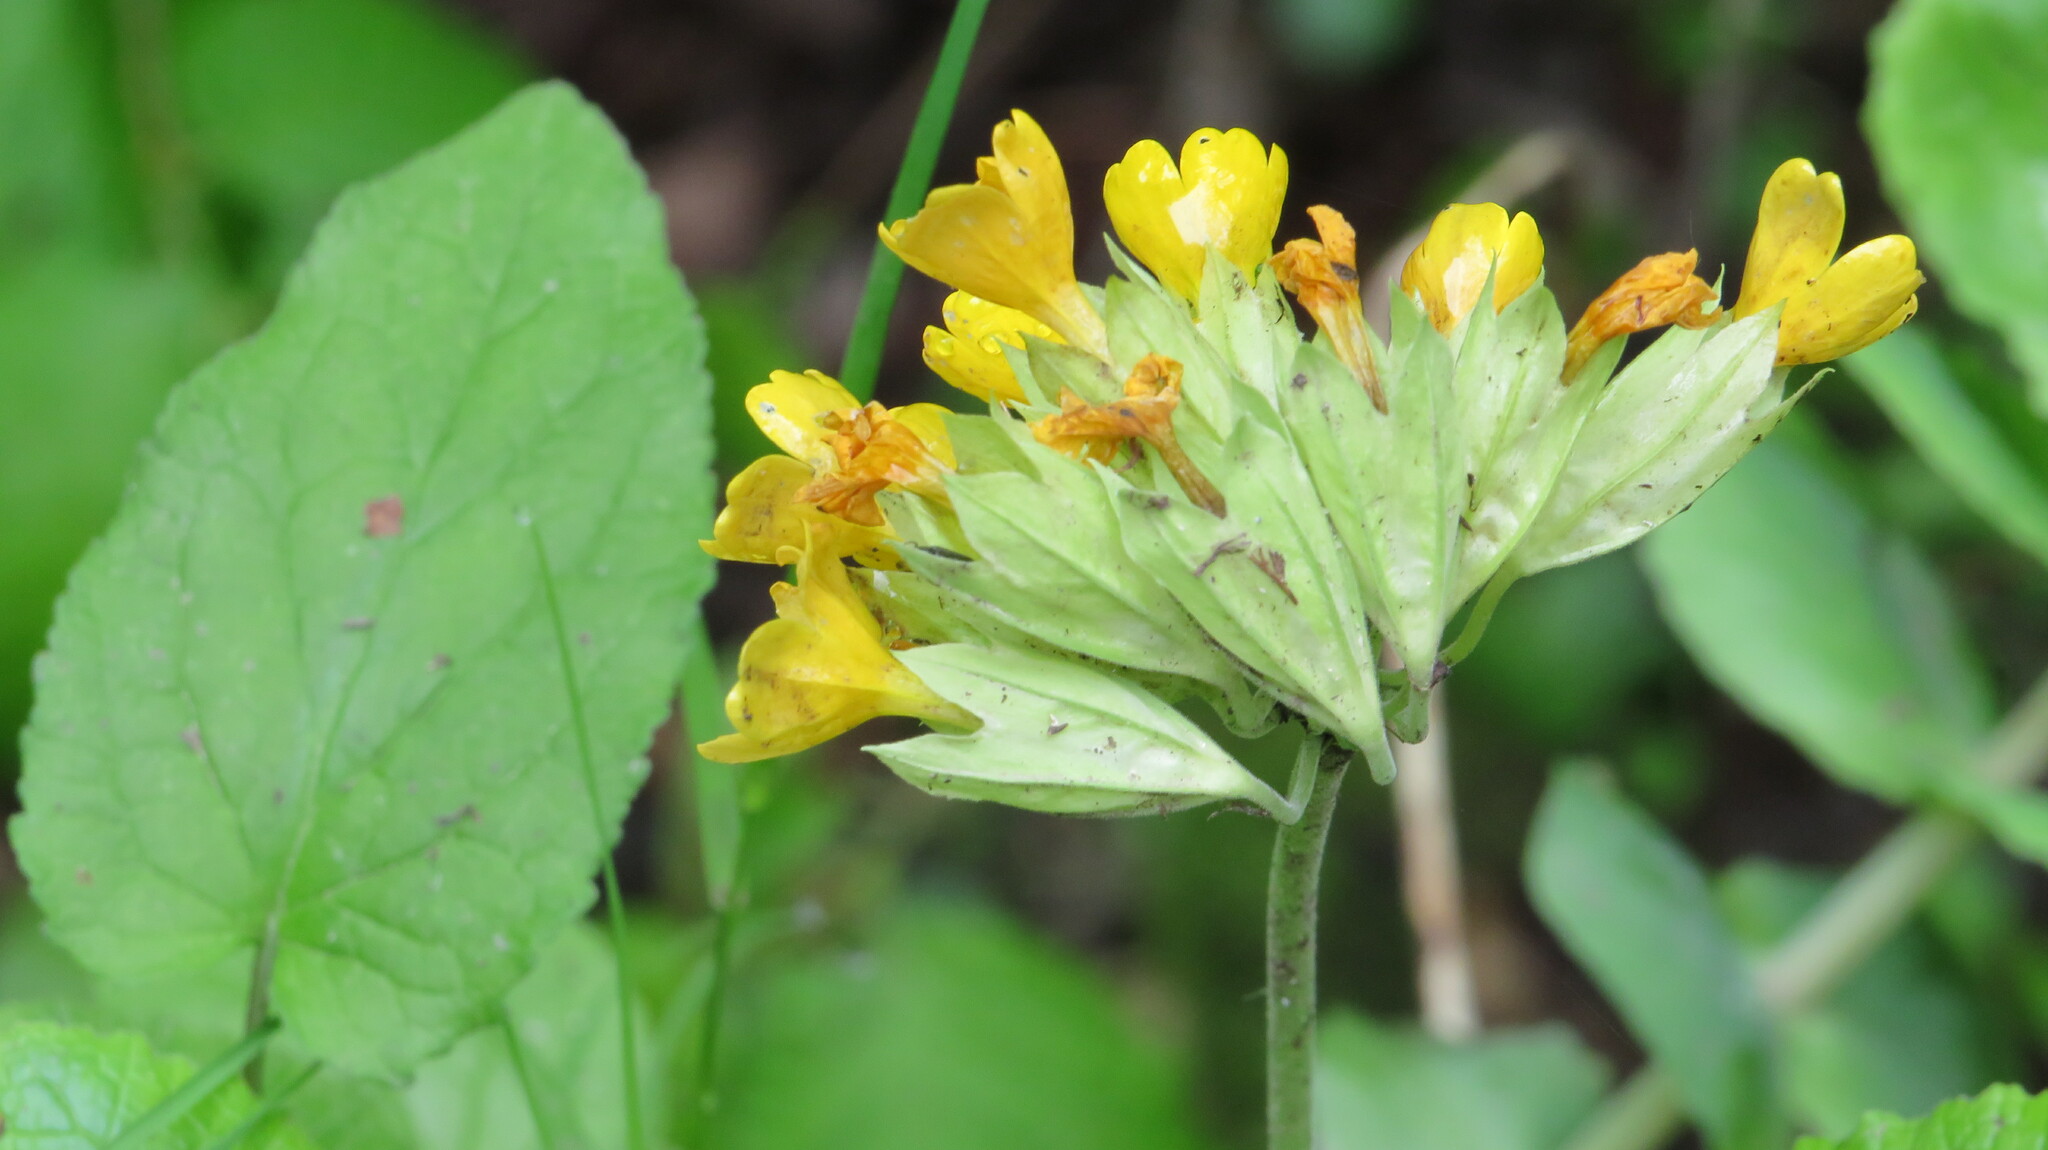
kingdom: Plantae
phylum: Tracheophyta
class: Magnoliopsida
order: Ericales
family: Primulaceae
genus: Primula
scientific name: Primula veris
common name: Cowslip
